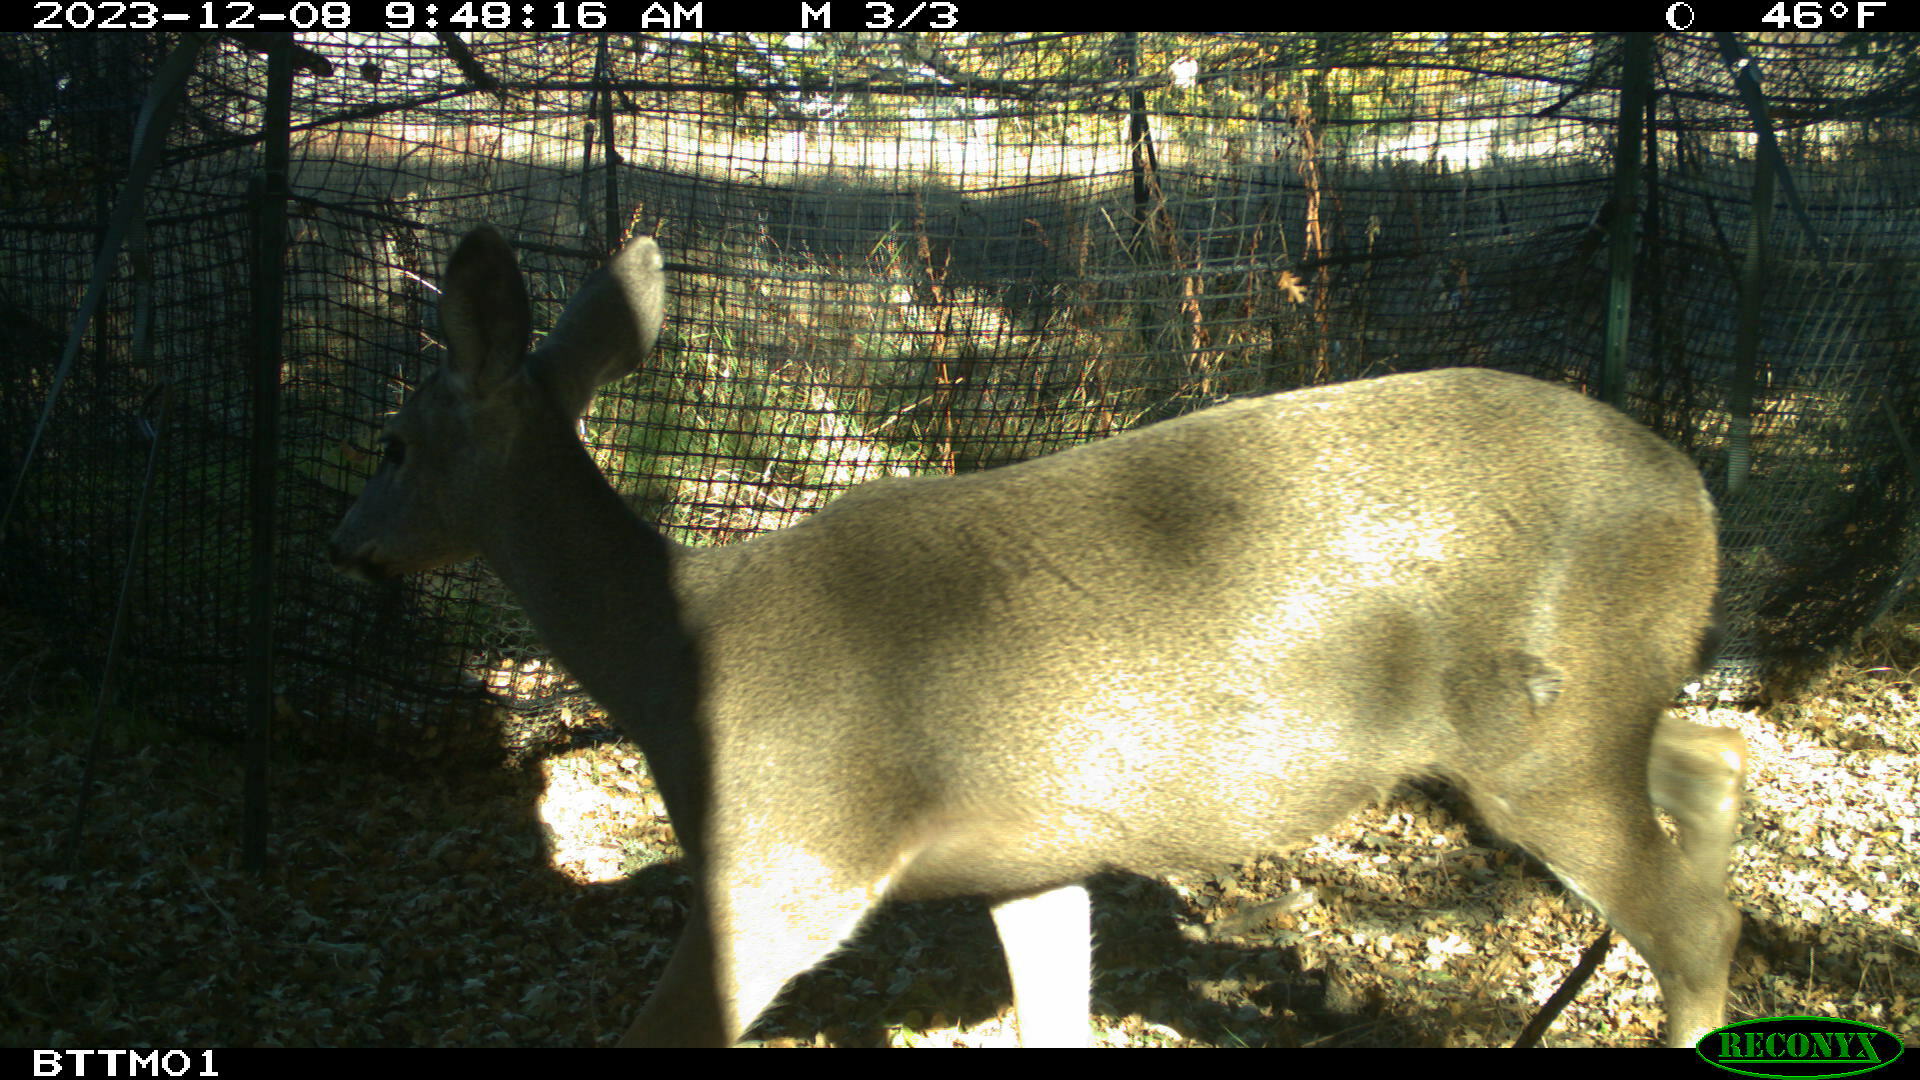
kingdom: Animalia
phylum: Chordata
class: Mammalia
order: Artiodactyla
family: Cervidae
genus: Odocoileus
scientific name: Odocoileus hemionus
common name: Mule deer
